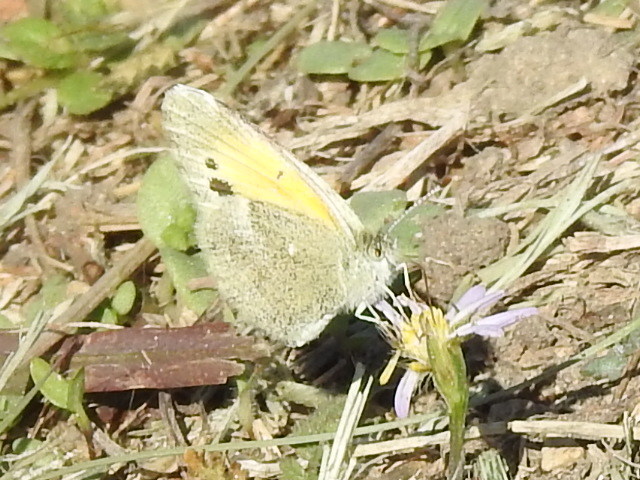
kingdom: Animalia
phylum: Arthropoda
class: Insecta
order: Lepidoptera
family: Pieridae
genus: Nathalis
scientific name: Nathalis iole
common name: Dainty sulphur
